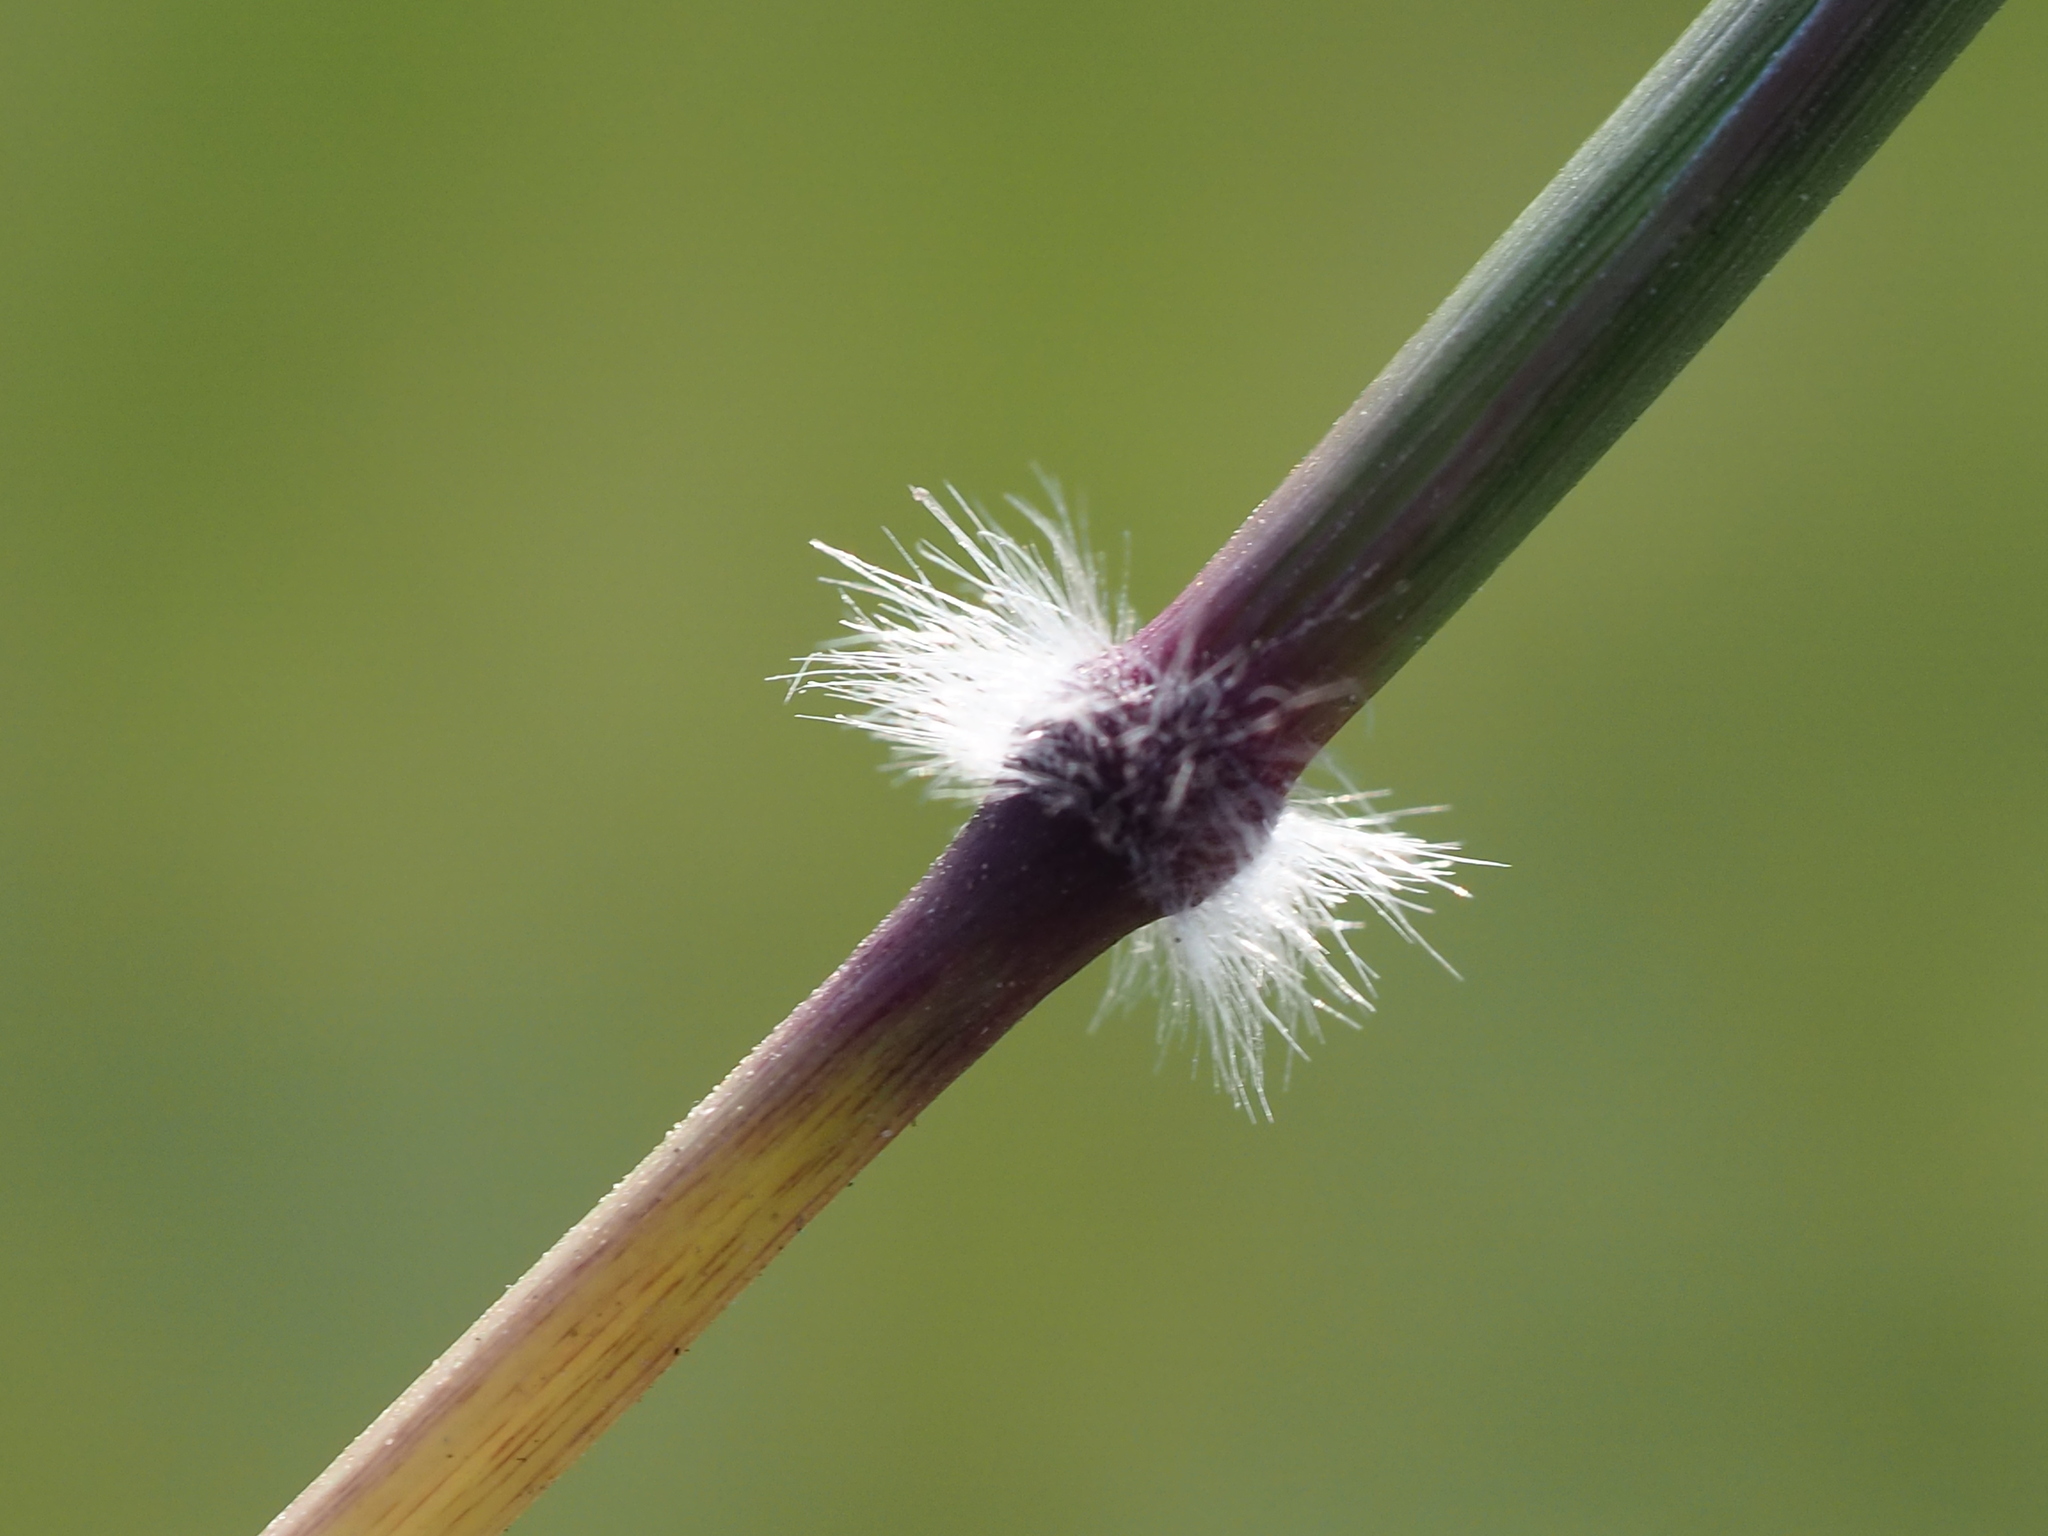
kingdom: Plantae
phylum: Tracheophyta
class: Liliopsida
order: Poales
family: Poaceae
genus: Dichanthium
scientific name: Dichanthium annulatum
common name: Kleberg's bluestem
